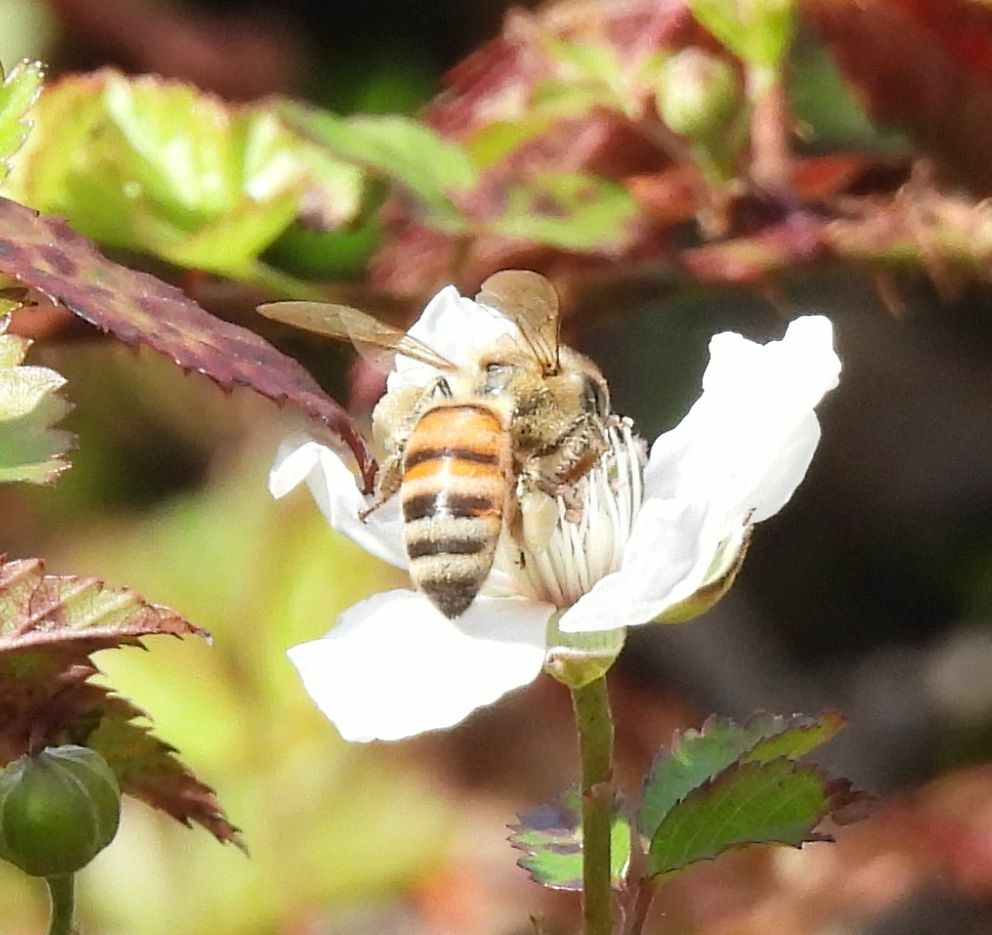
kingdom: Animalia
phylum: Arthropoda
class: Insecta
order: Hymenoptera
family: Apidae
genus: Apis
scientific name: Apis mellifera
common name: Honey bee
